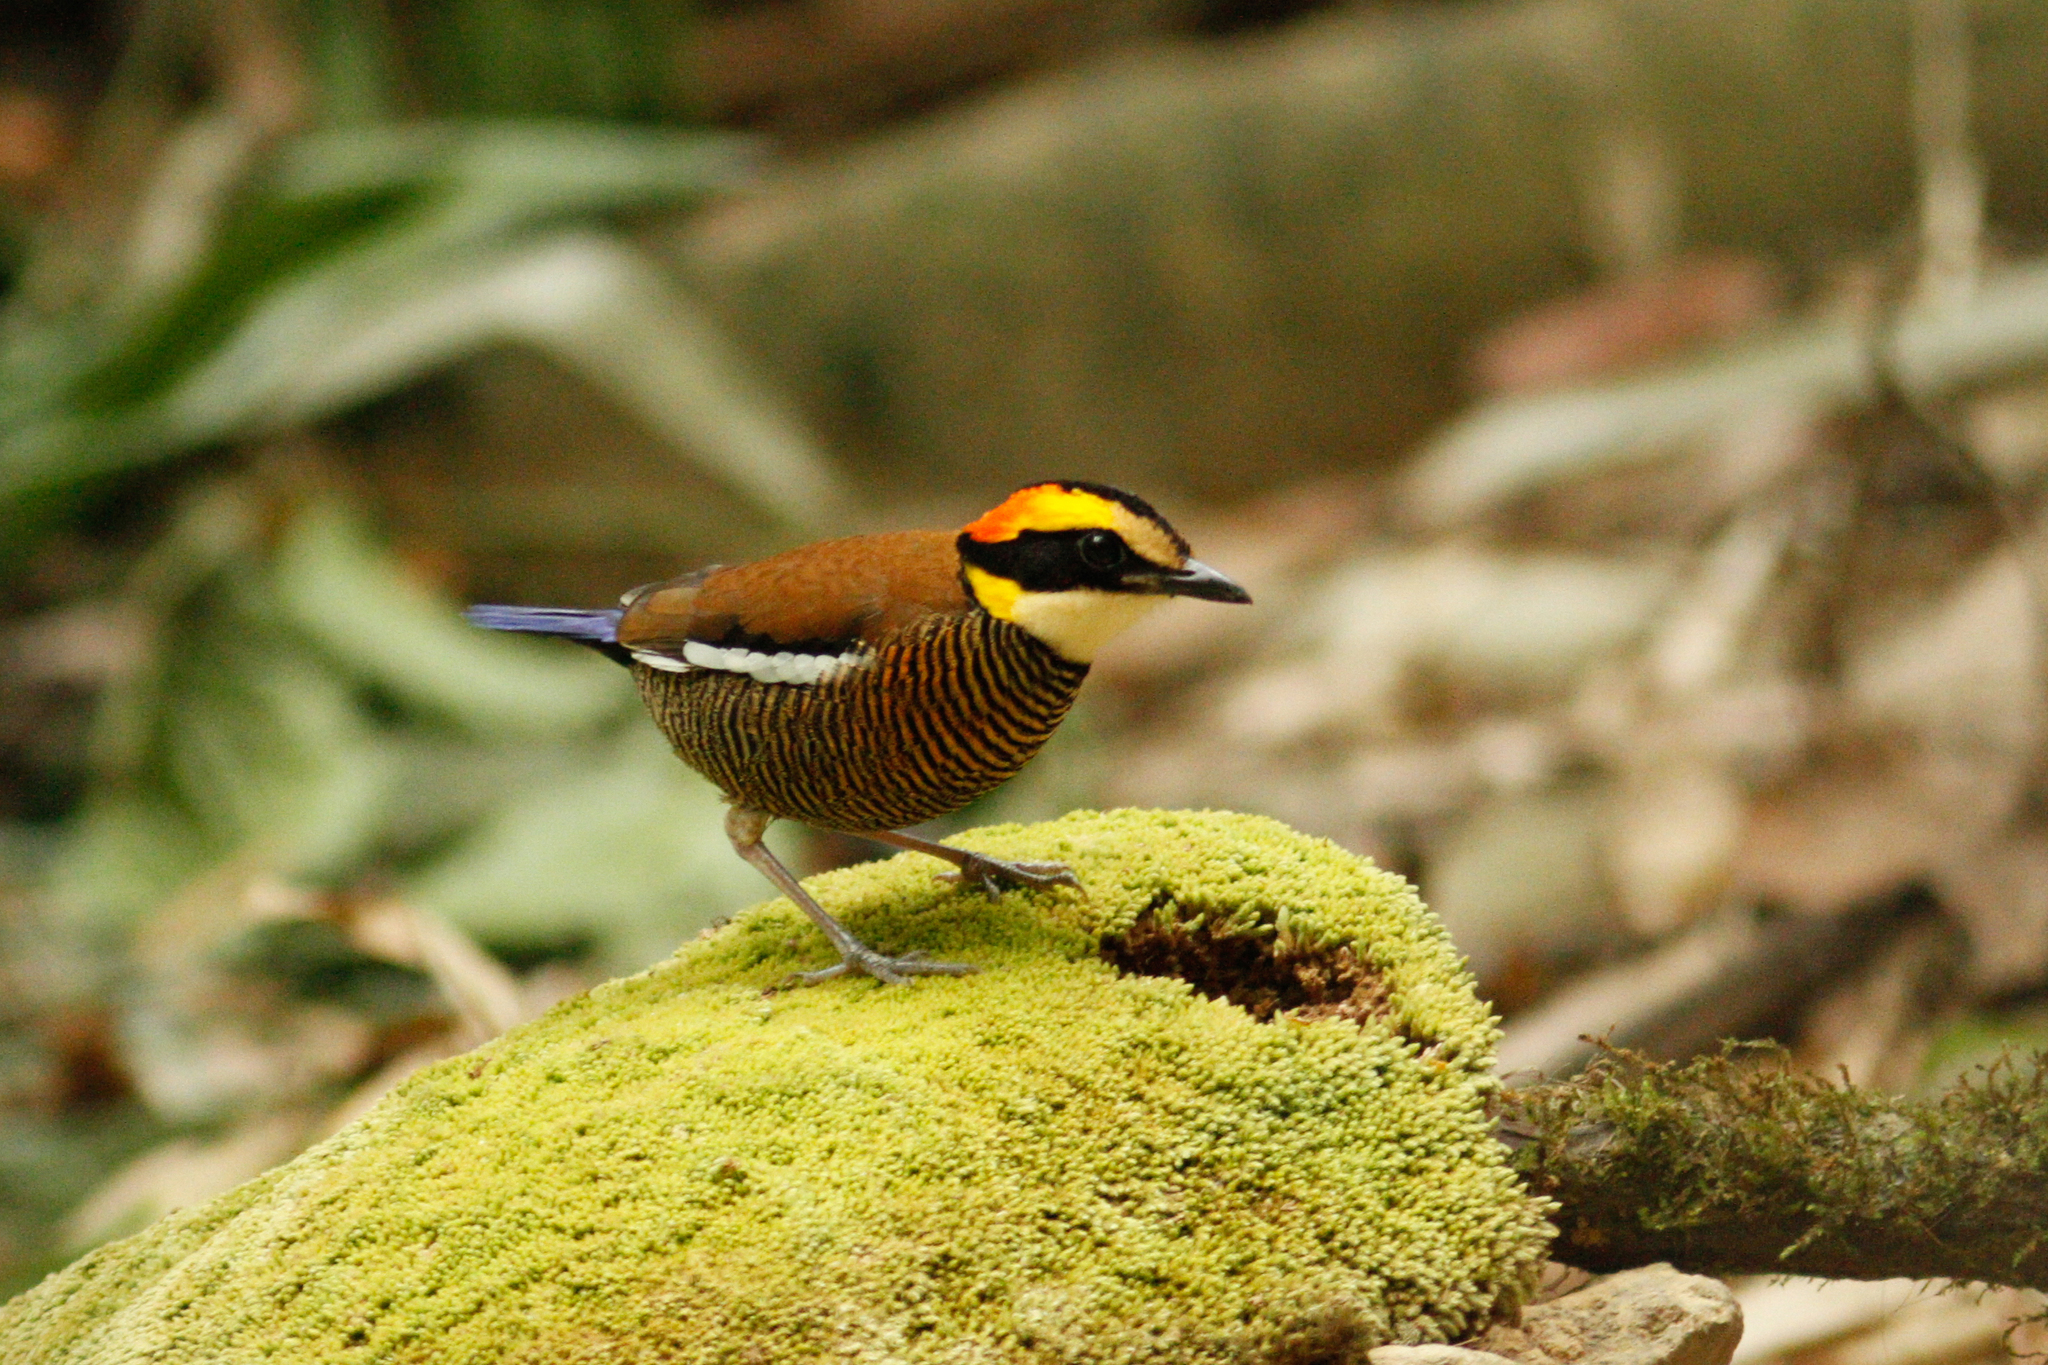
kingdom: Animalia
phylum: Chordata
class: Aves
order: Passeriformes
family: Pittidae
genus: Hydrornis
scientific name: Hydrornis irena
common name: Malayan banded pitta
